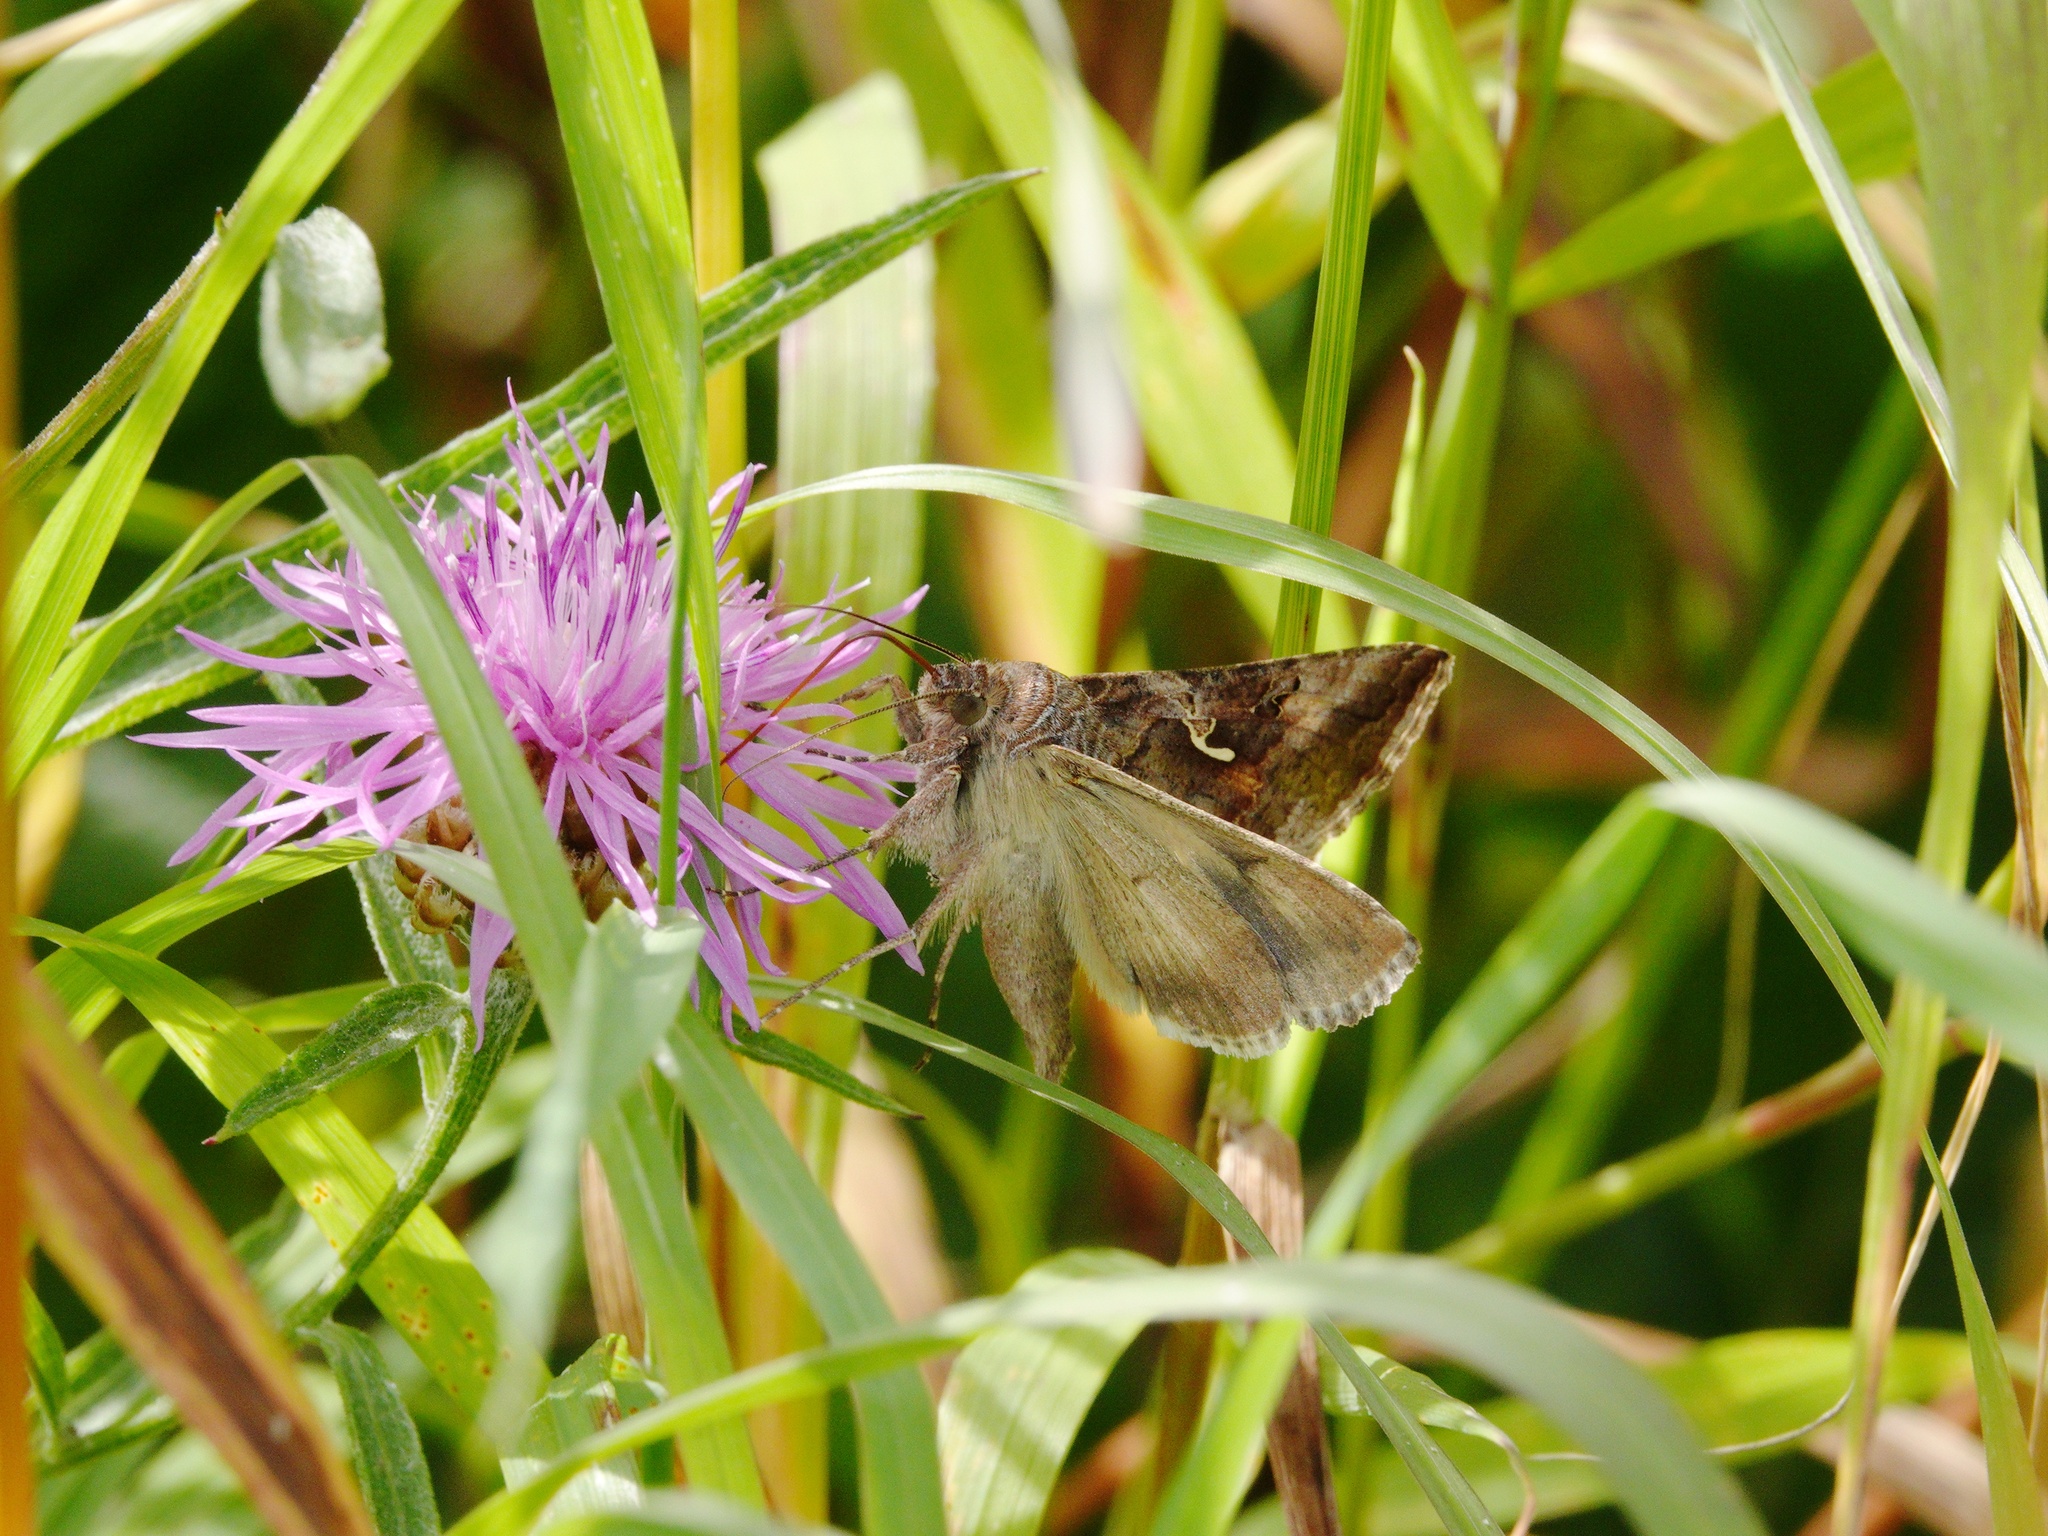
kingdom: Animalia
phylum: Arthropoda
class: Insecta
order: Lepidoptera
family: Noctuidae
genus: Autographa
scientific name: Autographa gamma
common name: Silver y
